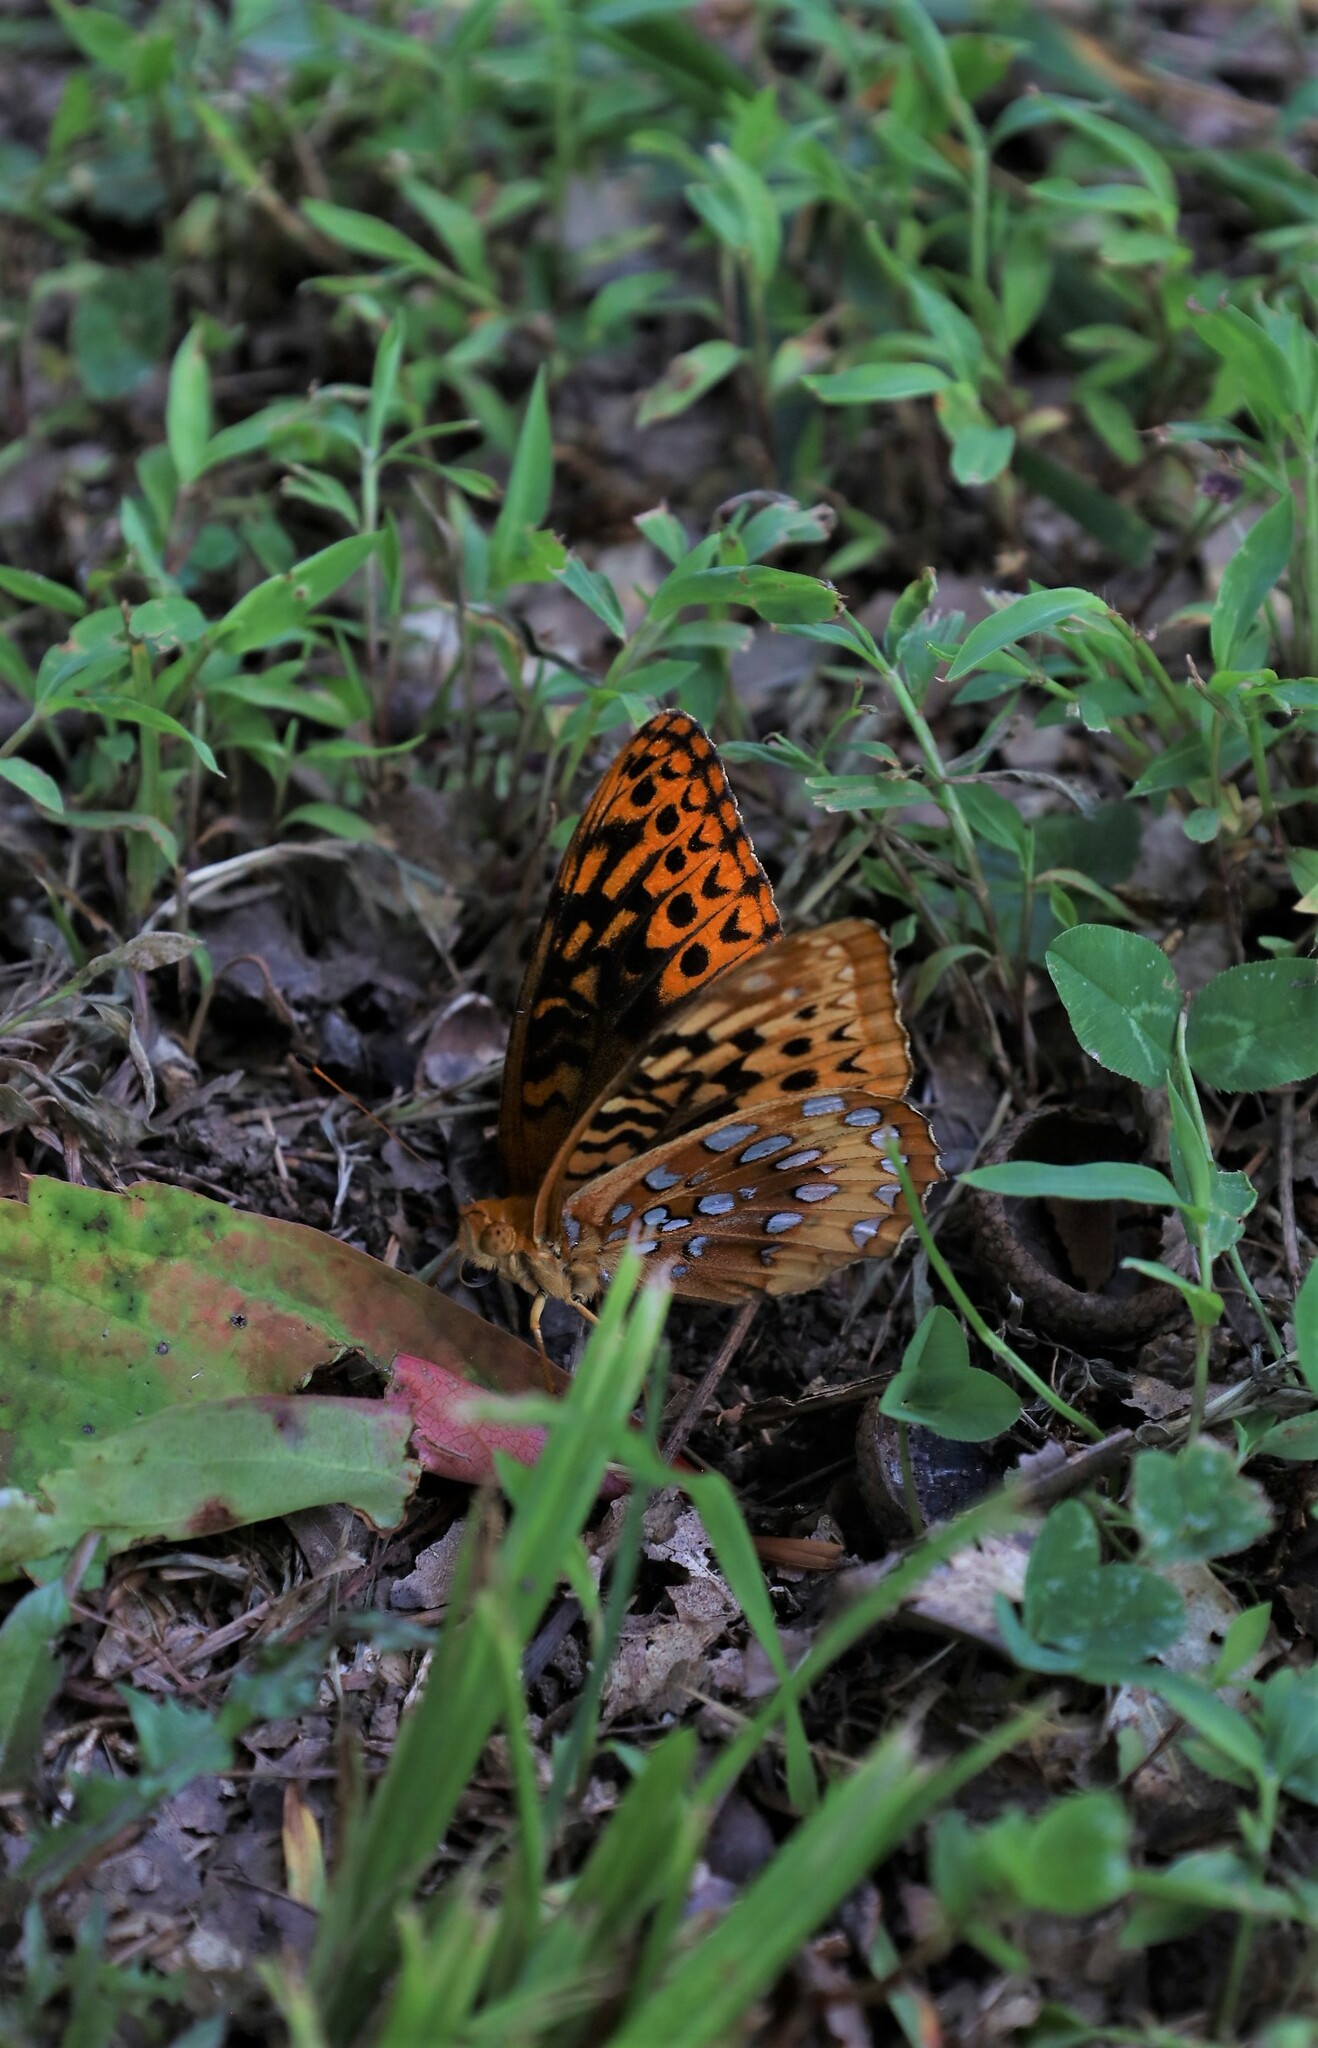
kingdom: Animalia
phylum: Arthropoda
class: Insecta
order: Lepidoptera
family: Nymphalidae
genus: Speyeria
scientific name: Speyeria cybele
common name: Great spangled fritillary
